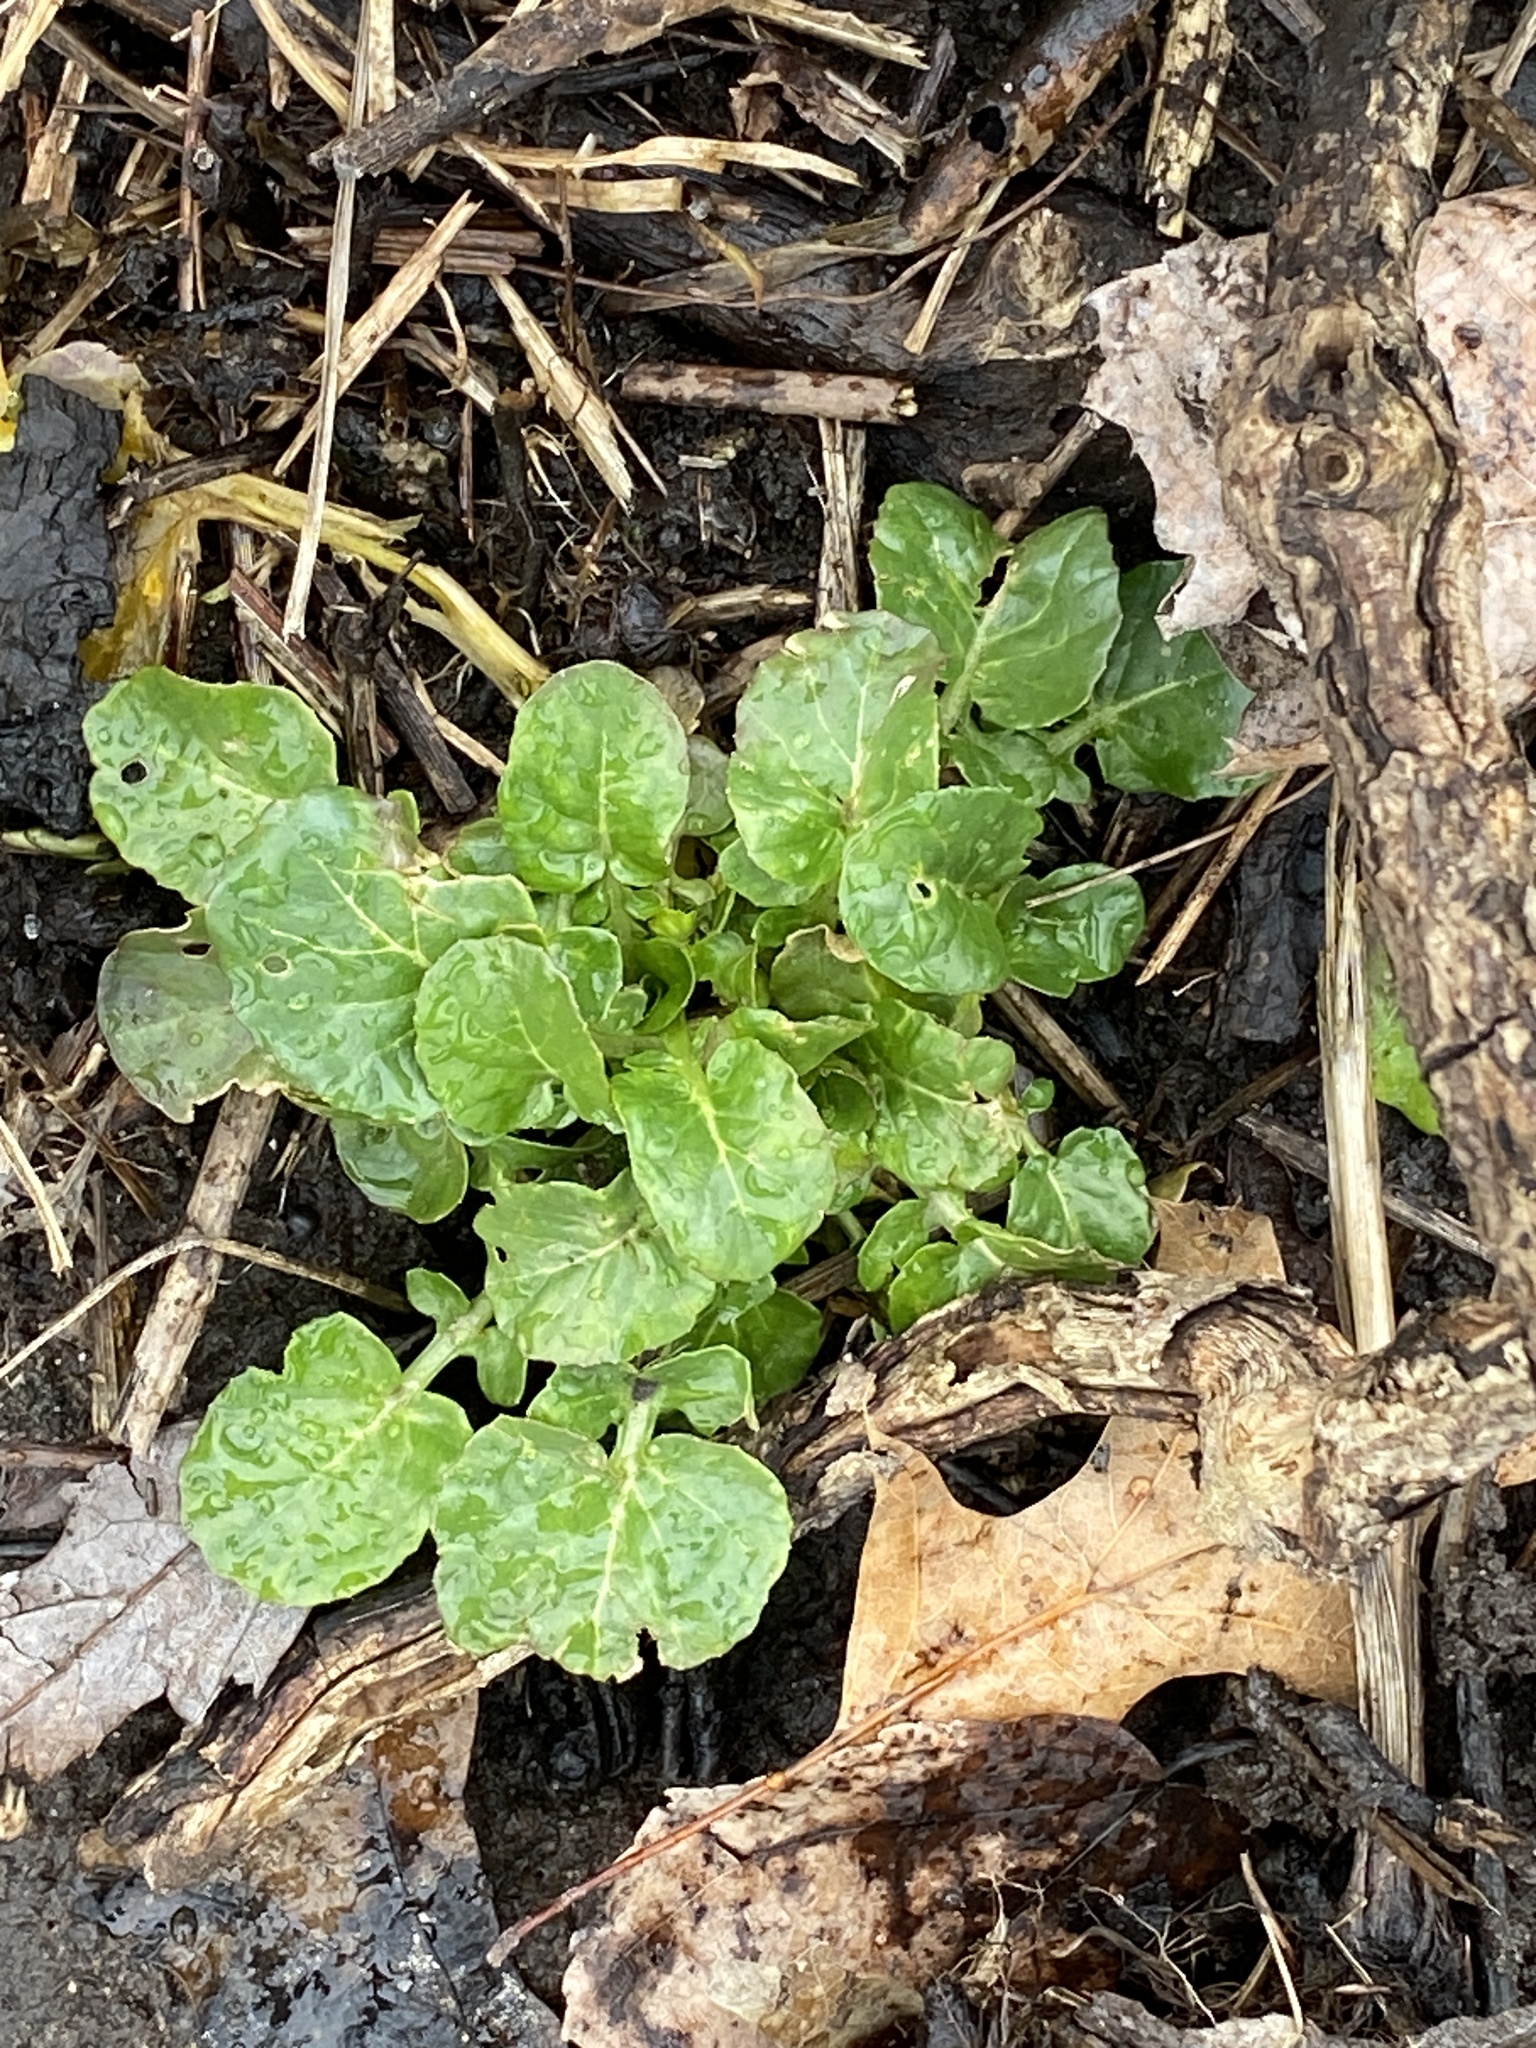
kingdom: Plantae
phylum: Tracheophyta
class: Magnoliopsida
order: Brassicales
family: Brassicaceae
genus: Barbarea
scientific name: Barbarea vulgaris
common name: Cressy-greens
